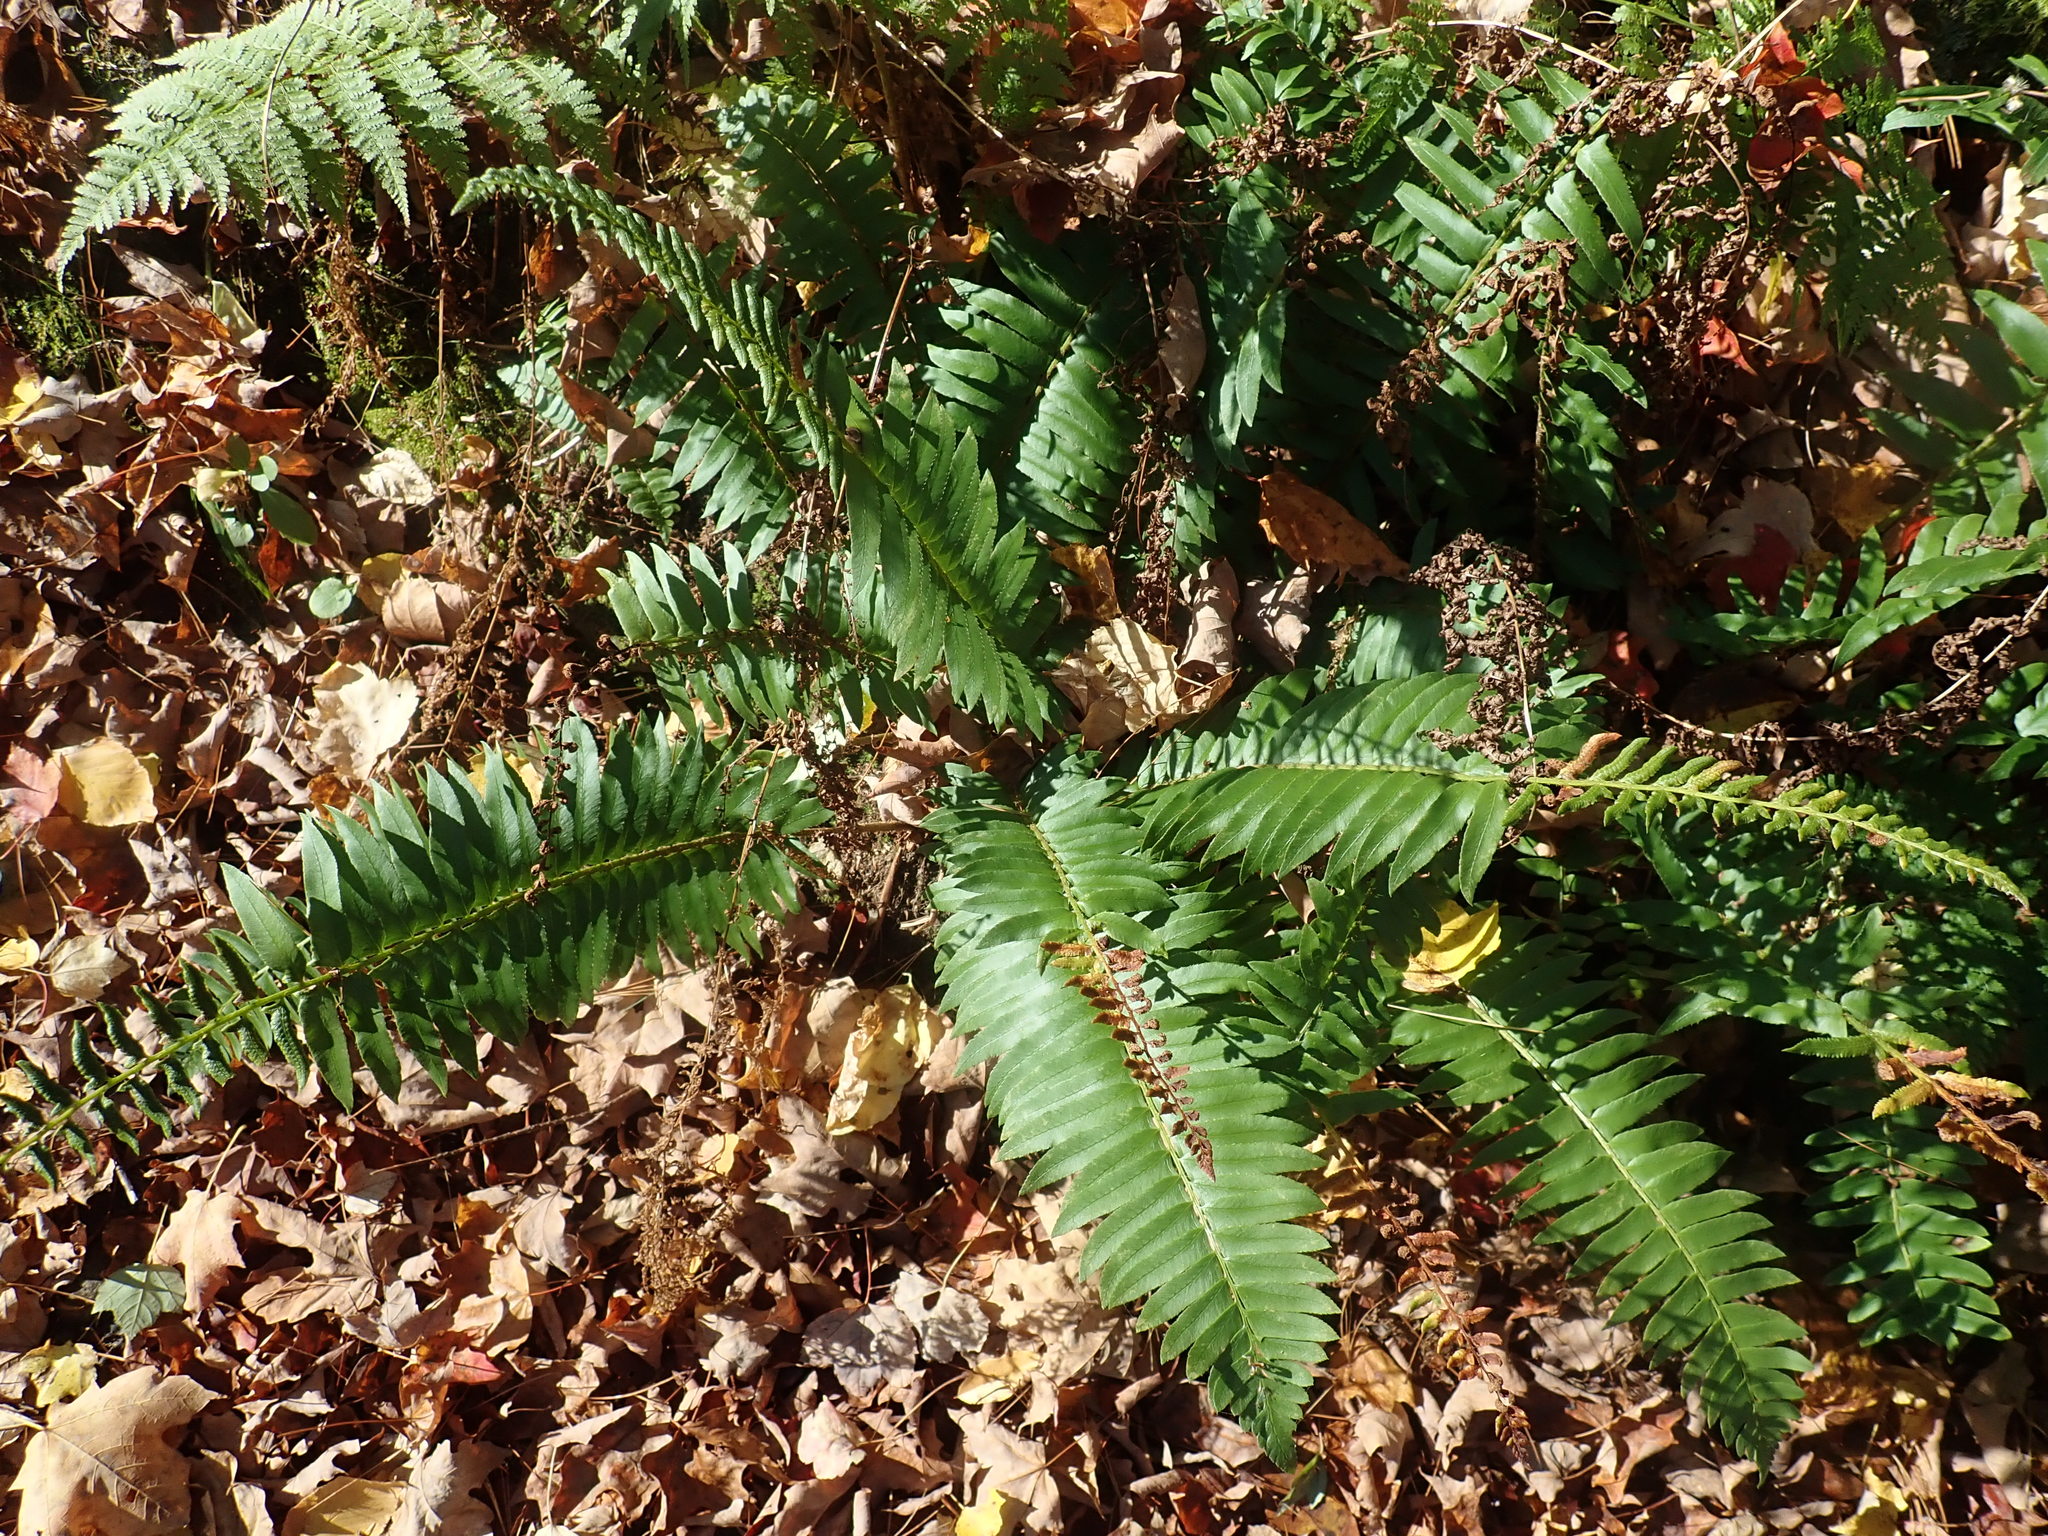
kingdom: Plantae
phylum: Tracheophyta
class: Polypodiopsida
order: Polypodiales
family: Dryopteridaceae
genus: Polystichum
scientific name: Polystichum acrostichoides
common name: Christmas fern
